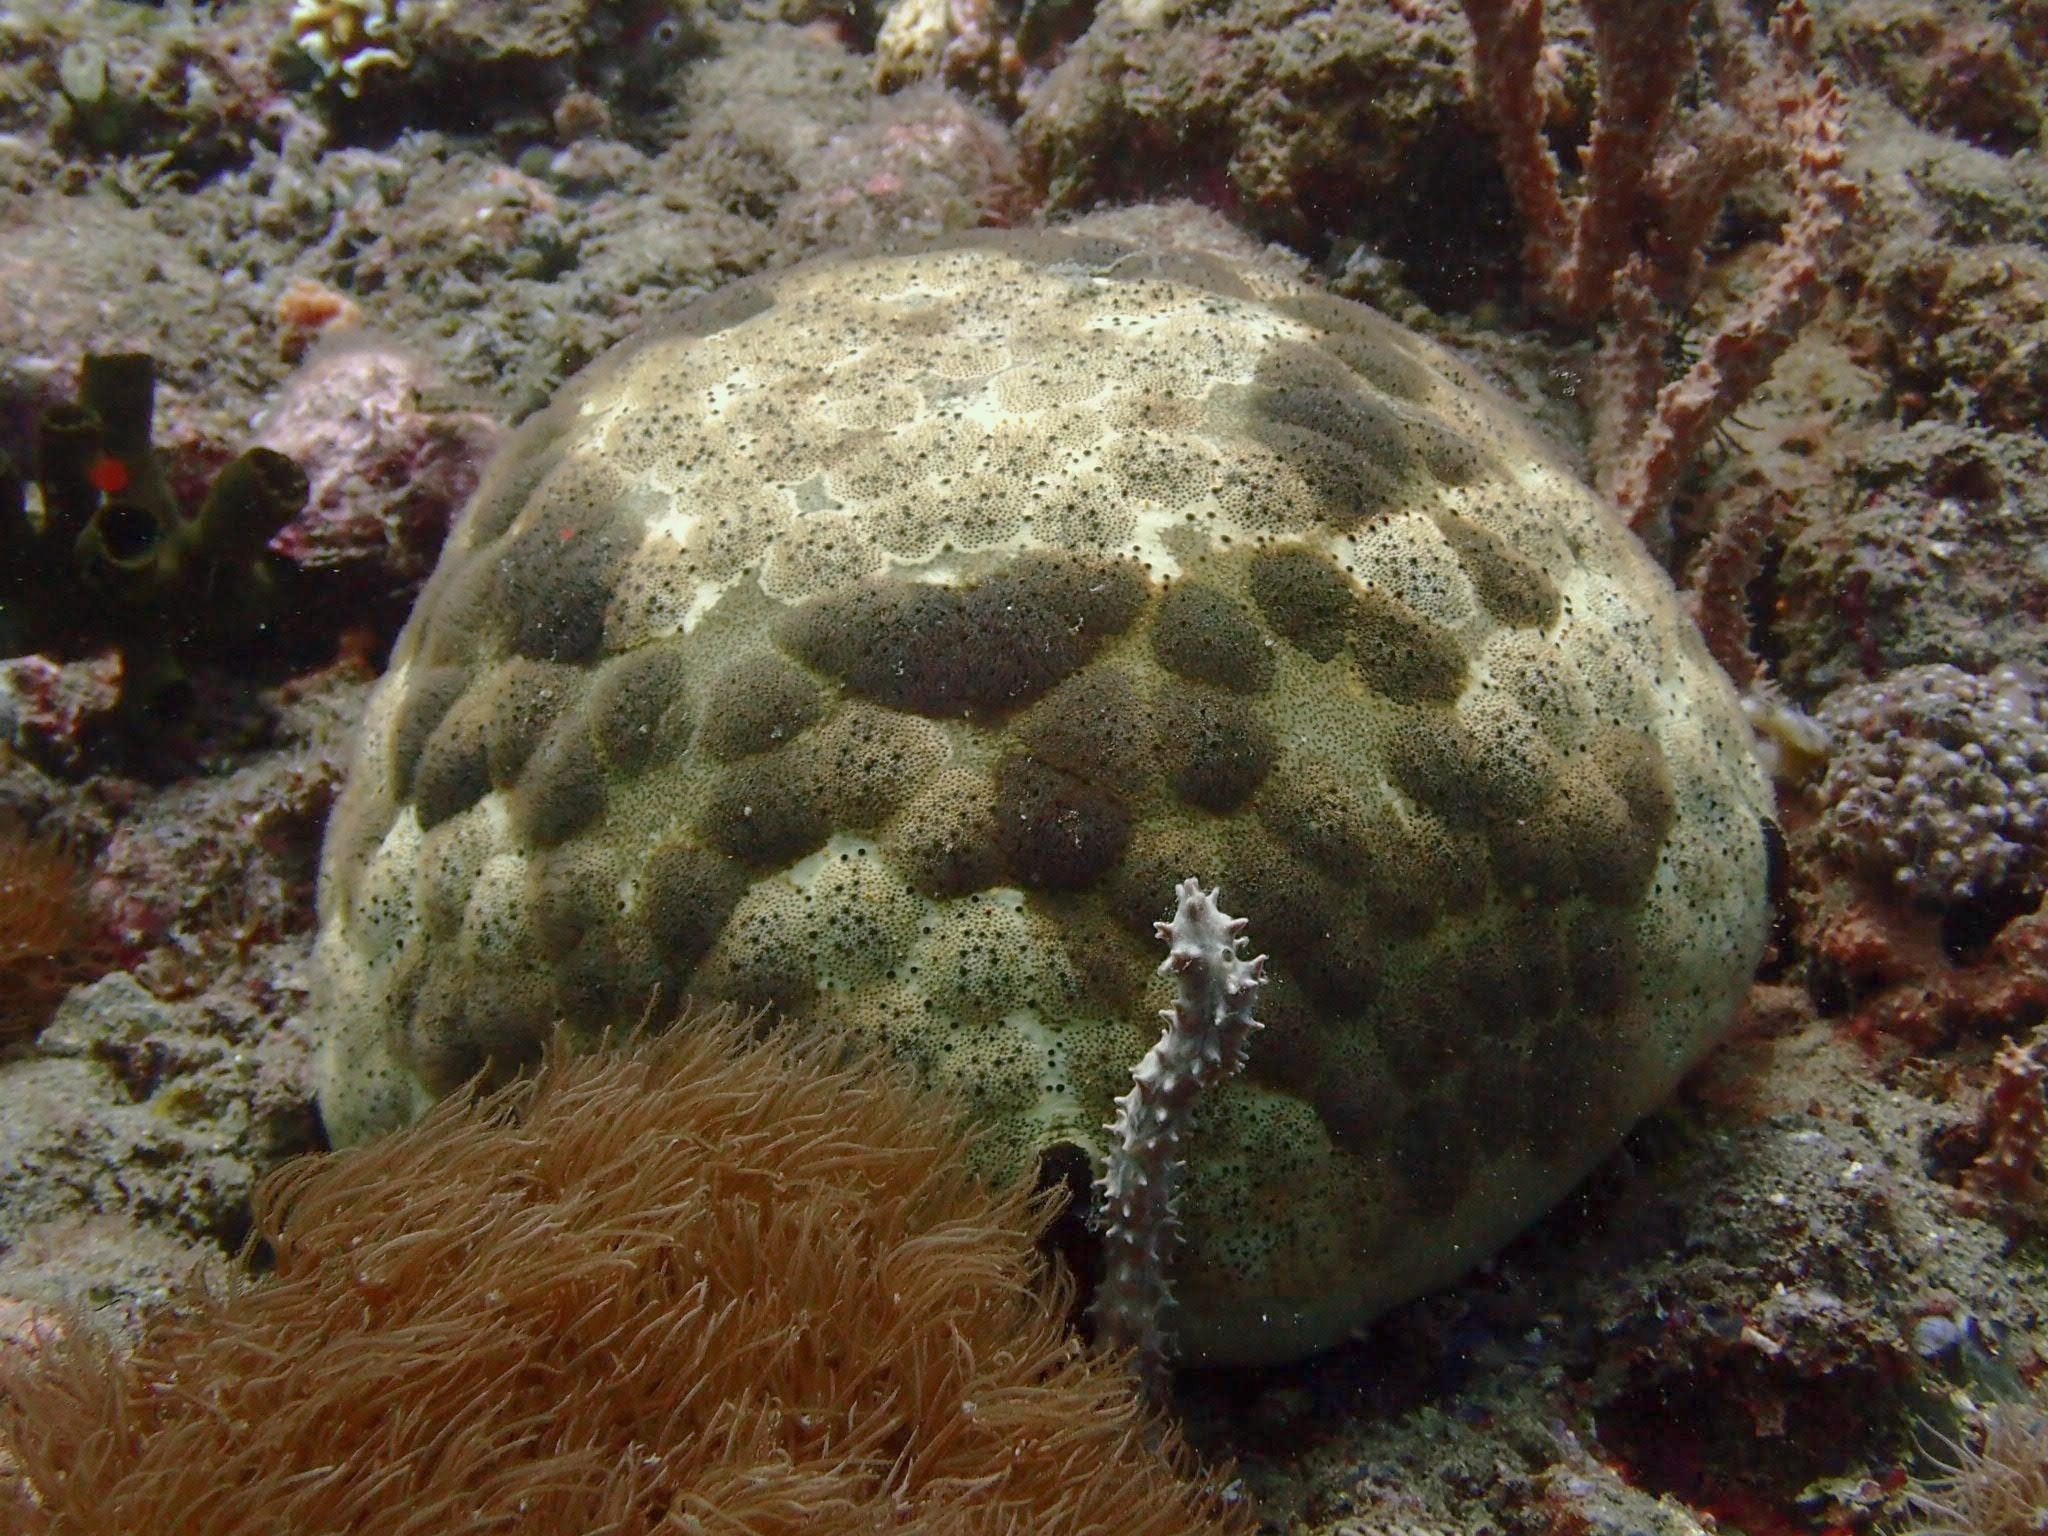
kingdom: Animalia
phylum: Echinodermata
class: Asteroidea
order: Valvatida
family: Oreasteridae
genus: Culcita
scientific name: Culcita novaeguineae
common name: Cushion star
